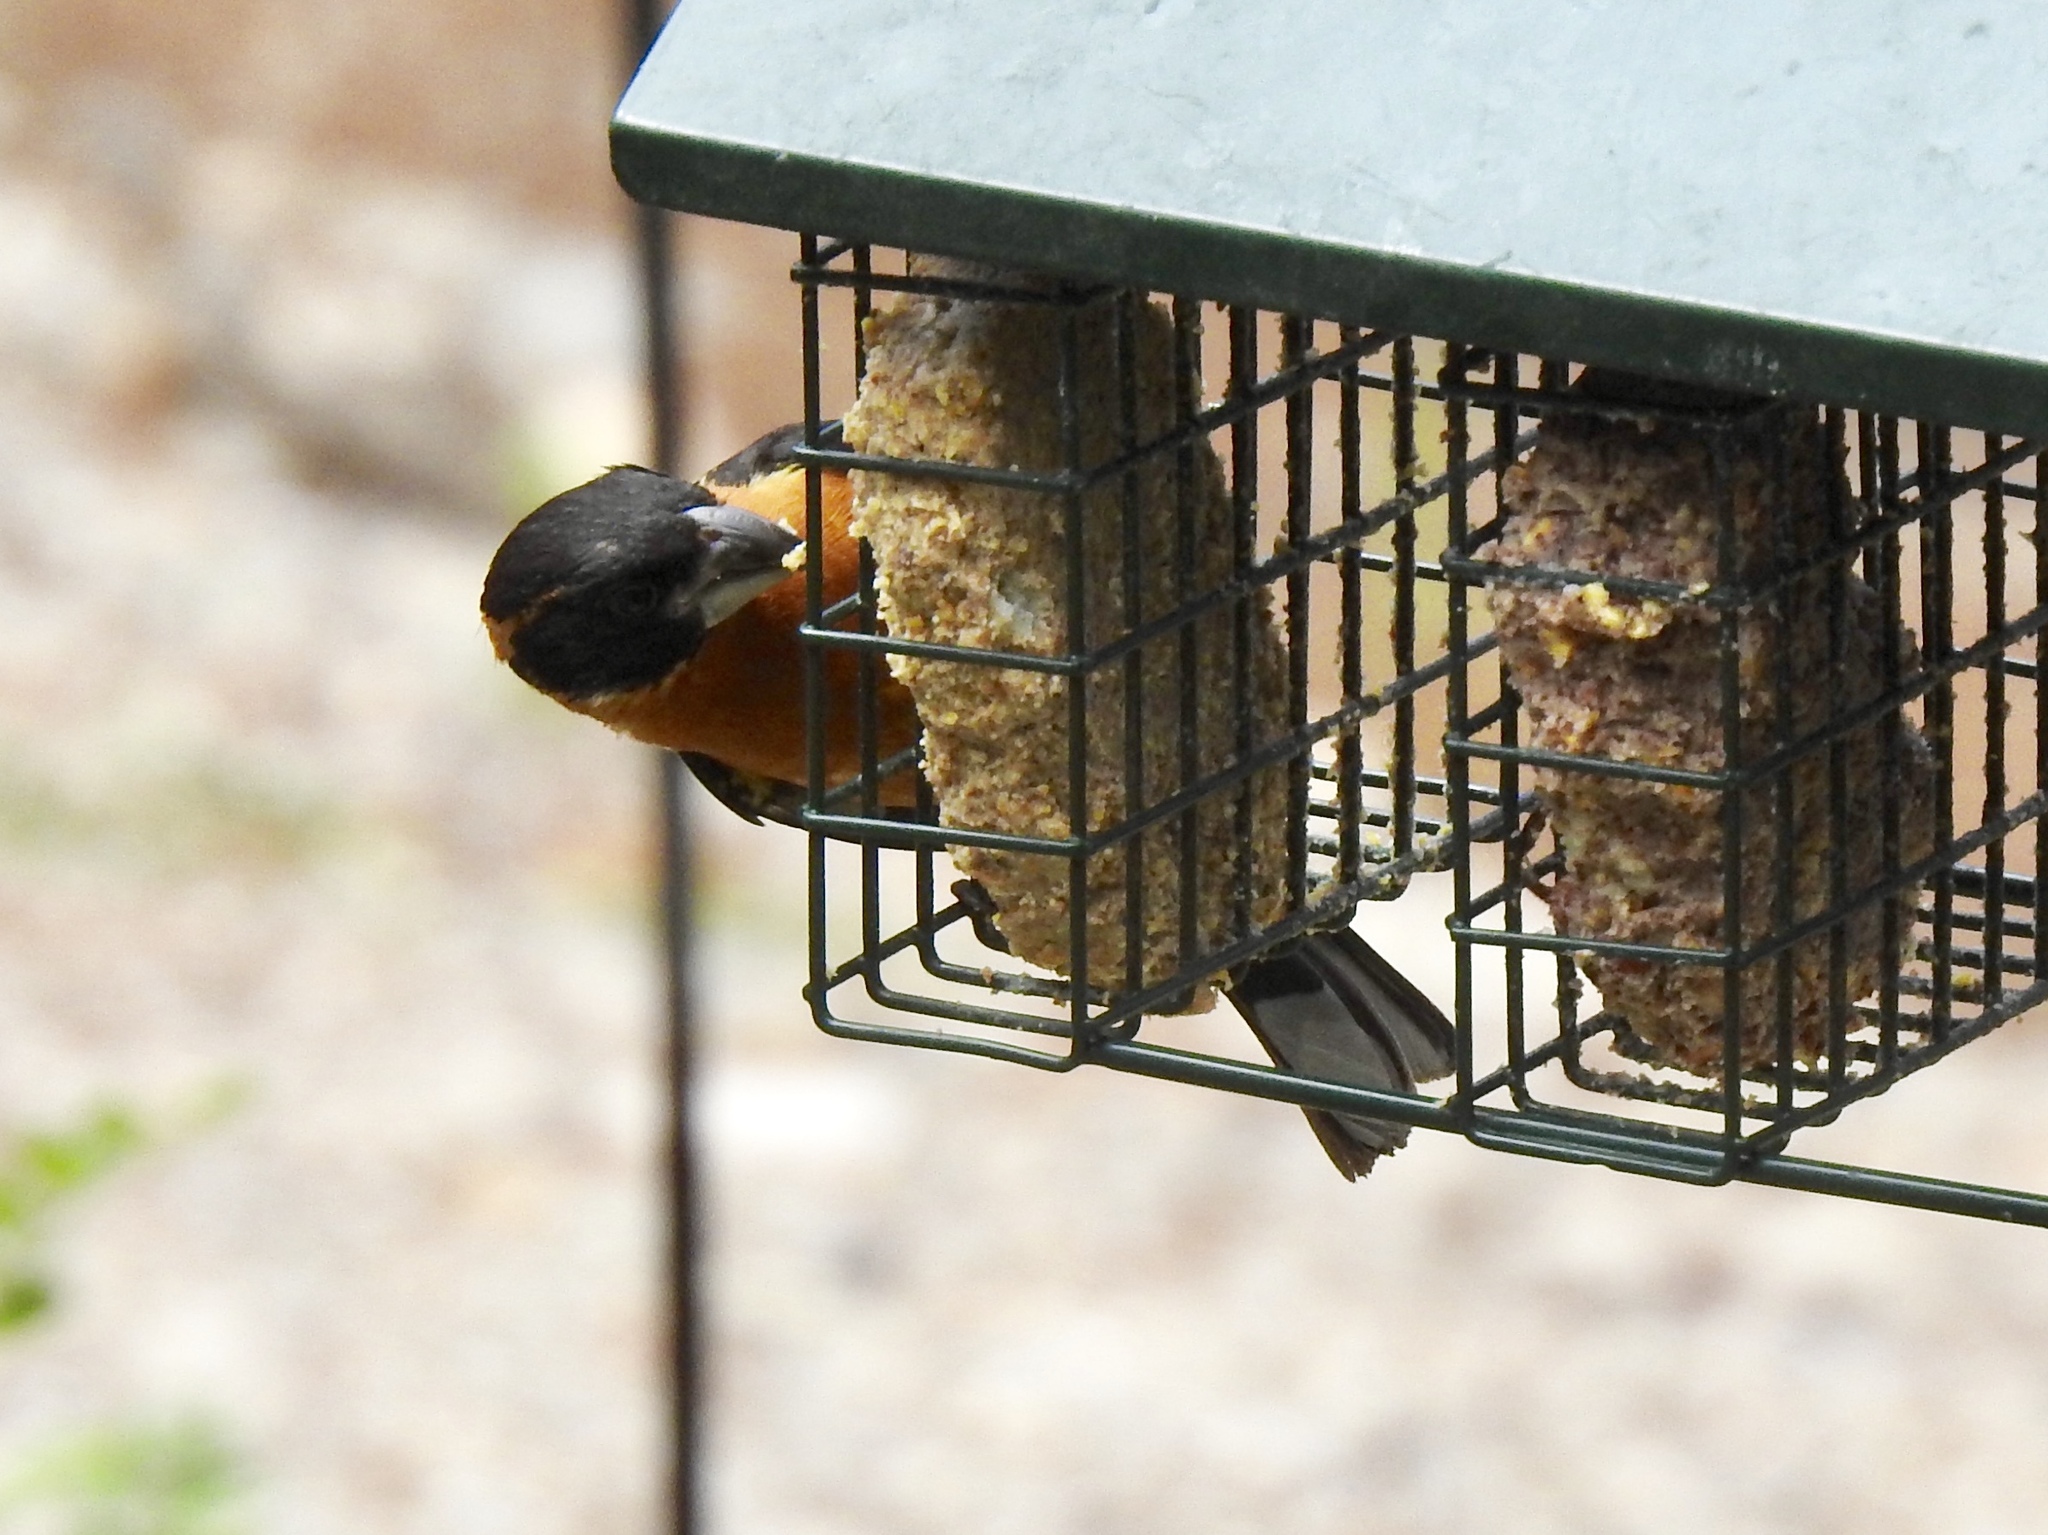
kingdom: Animalia
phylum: Chordata
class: Aves
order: Passeriformes
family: Cardinalidae
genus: Pheucticus
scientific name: Pheucticus melanocephalus
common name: Black-headed grosbeak
